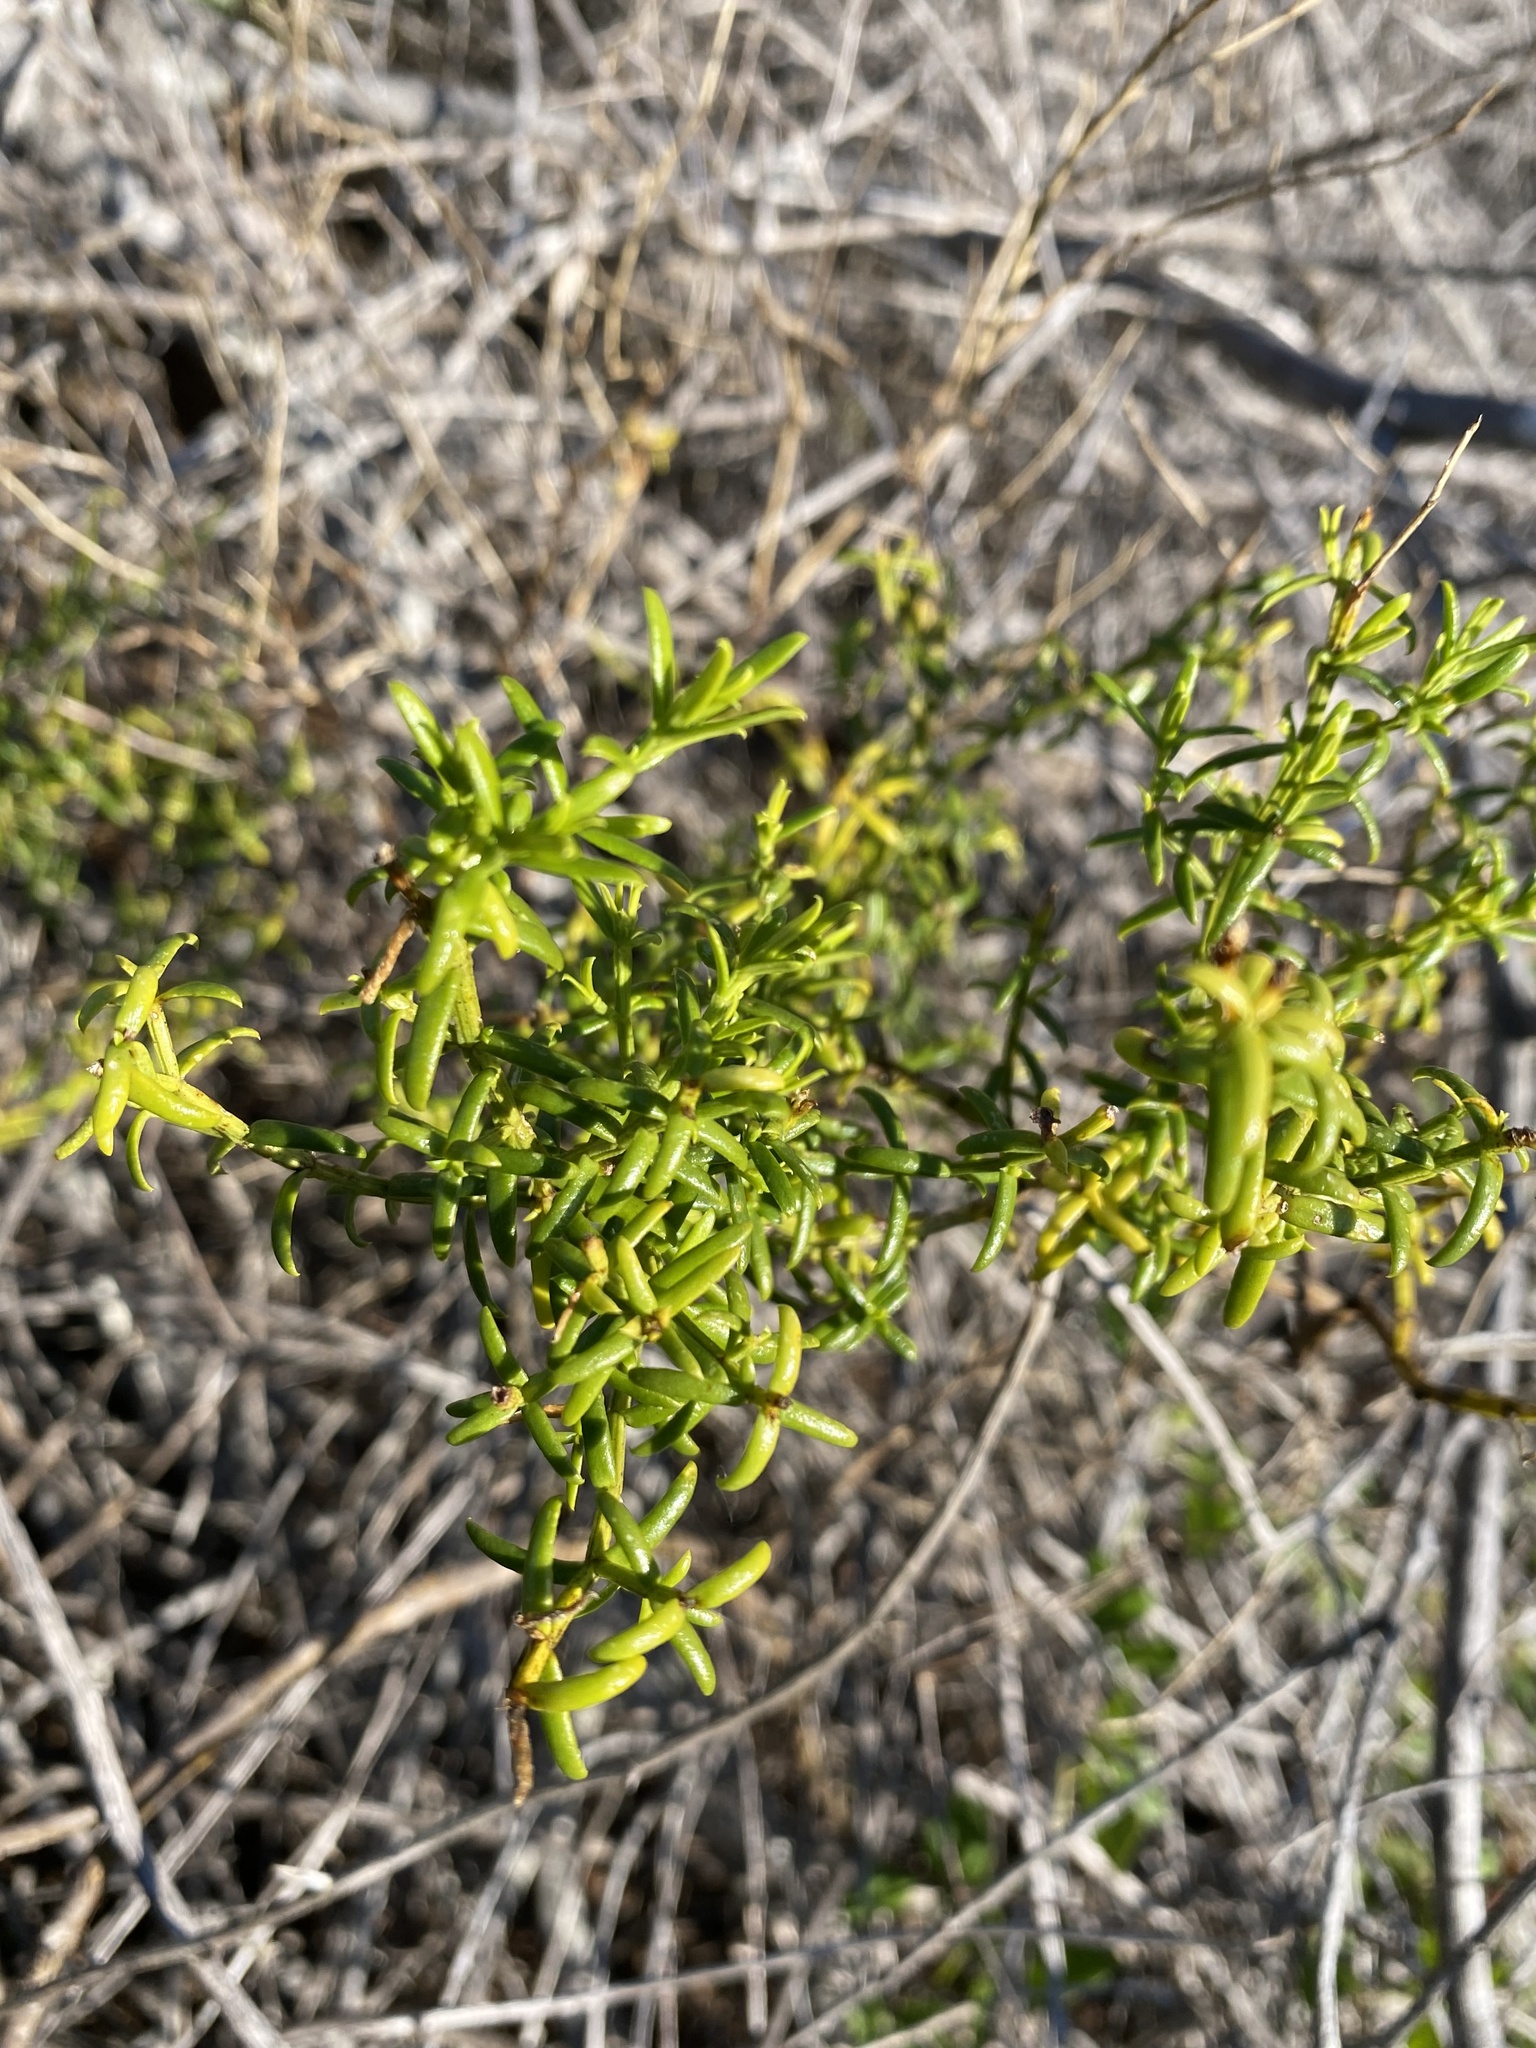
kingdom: Plantae
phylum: Tracheophyta
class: Magnoliopsida
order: Gentianales
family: Gentianaceae
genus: Chironia
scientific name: Chironia tetragona
